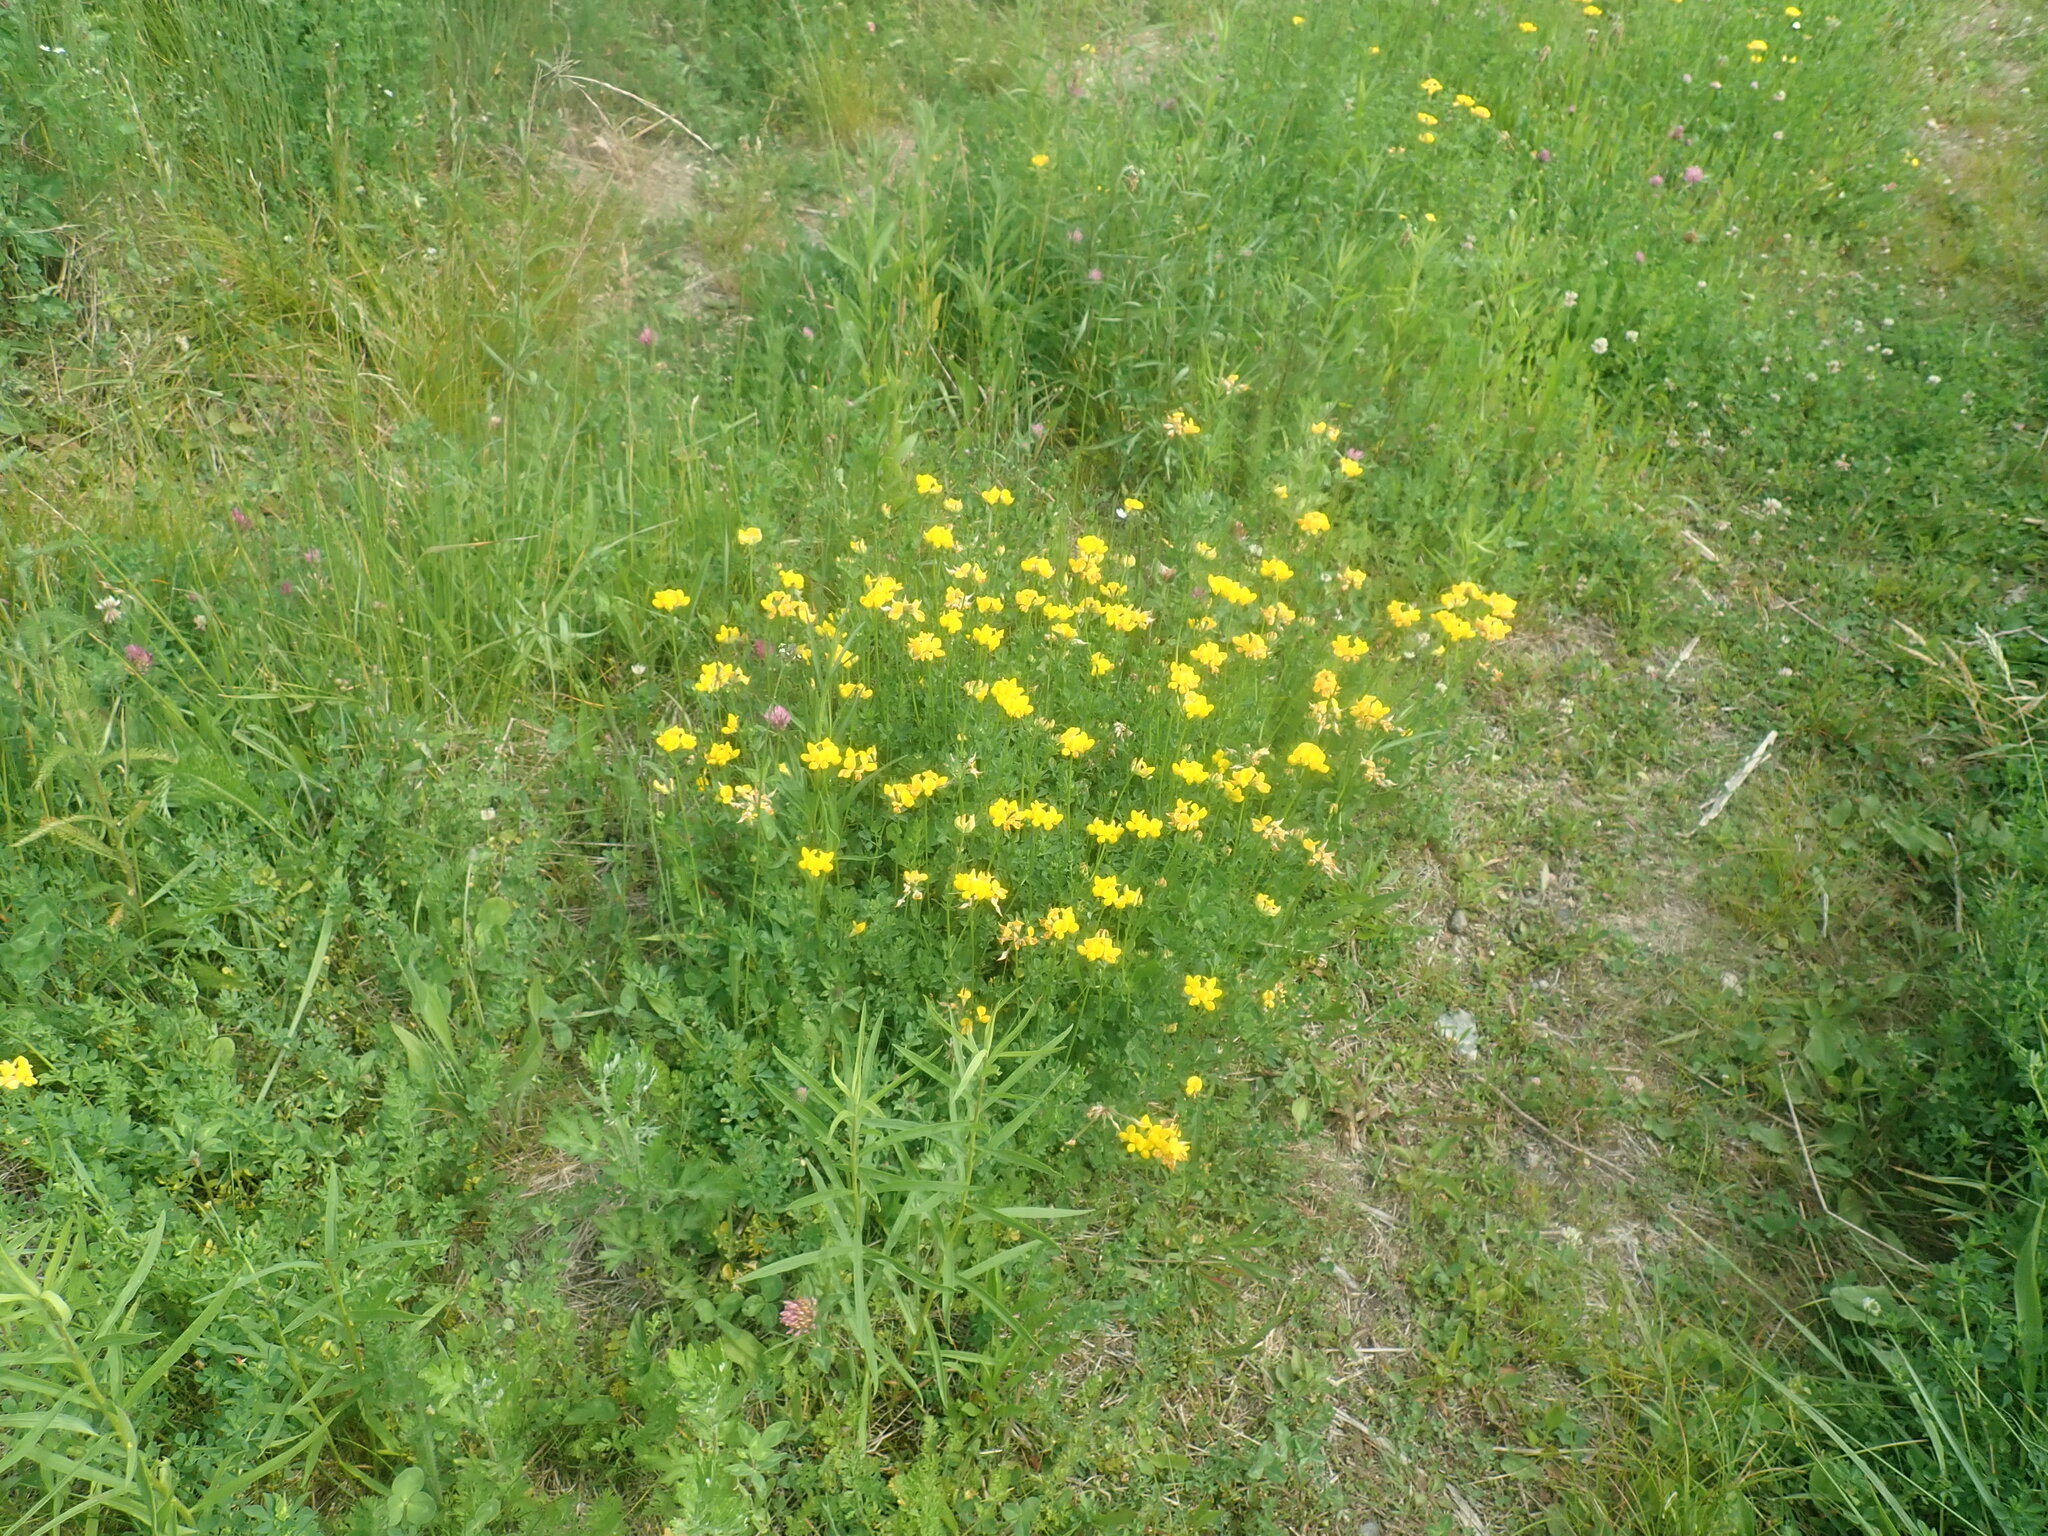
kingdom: Plantae
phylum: Tracheophyta
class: Magnoliopsida
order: Fabales
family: Fabaceae
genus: Lotus
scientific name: Lotus corniculatus
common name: Common bird's-foot-trefoil
